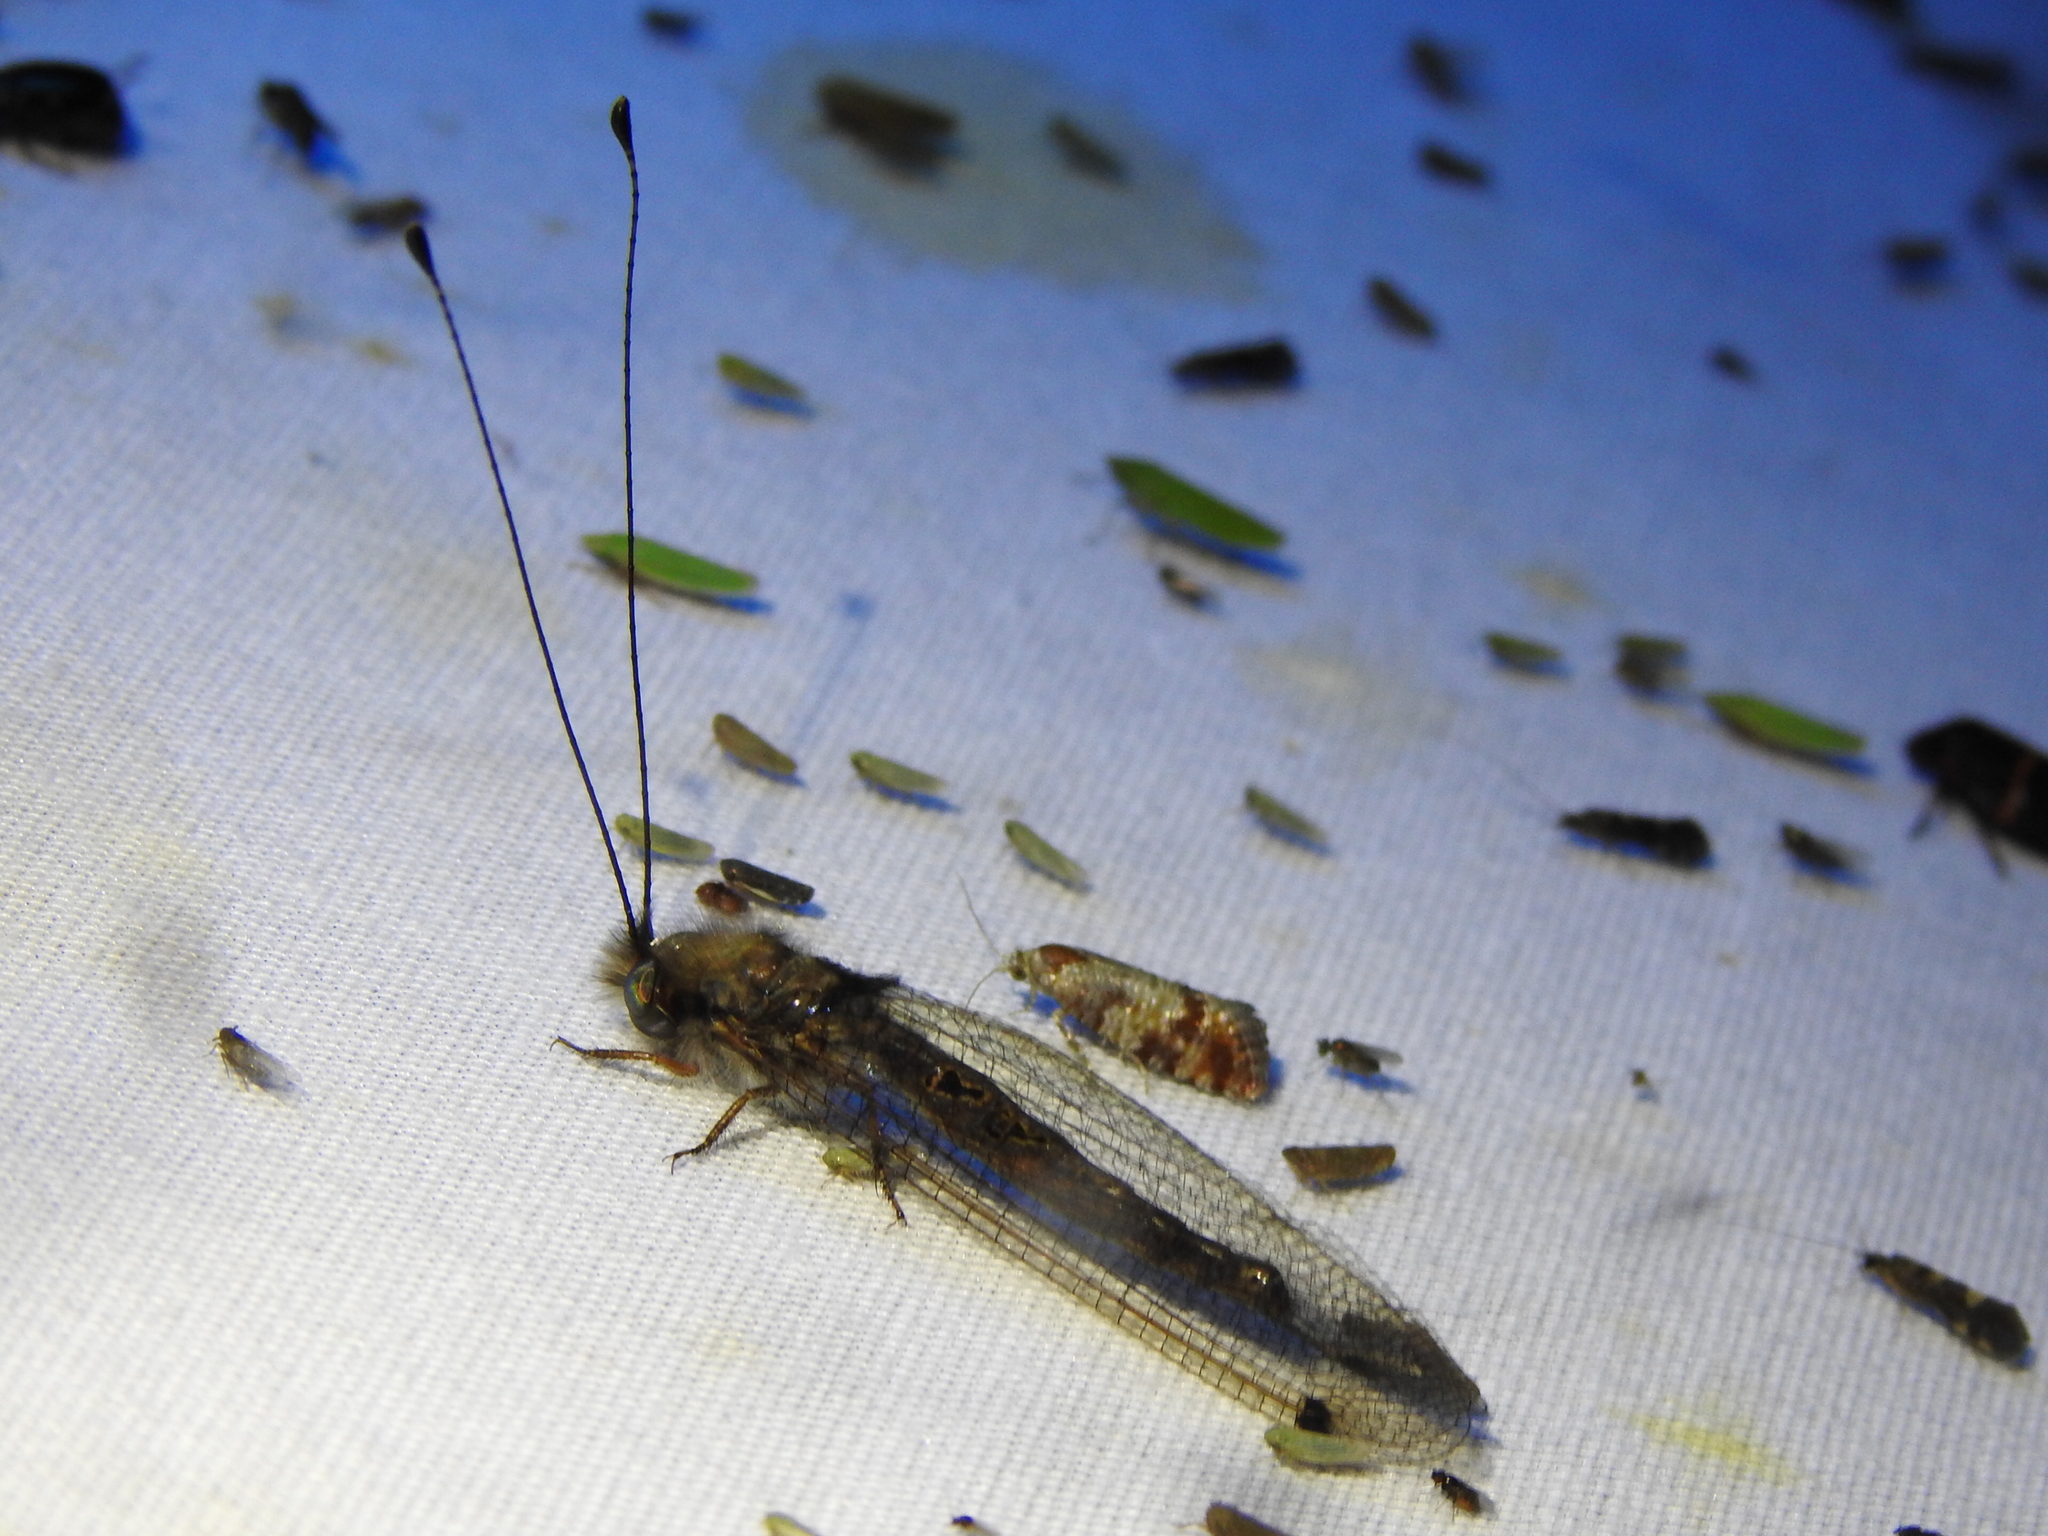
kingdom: Animalia
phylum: Arthropoda
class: Insecta
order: Neuroptera
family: Ascalaphidae
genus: Ululodes
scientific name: Ululodes macleayanus
